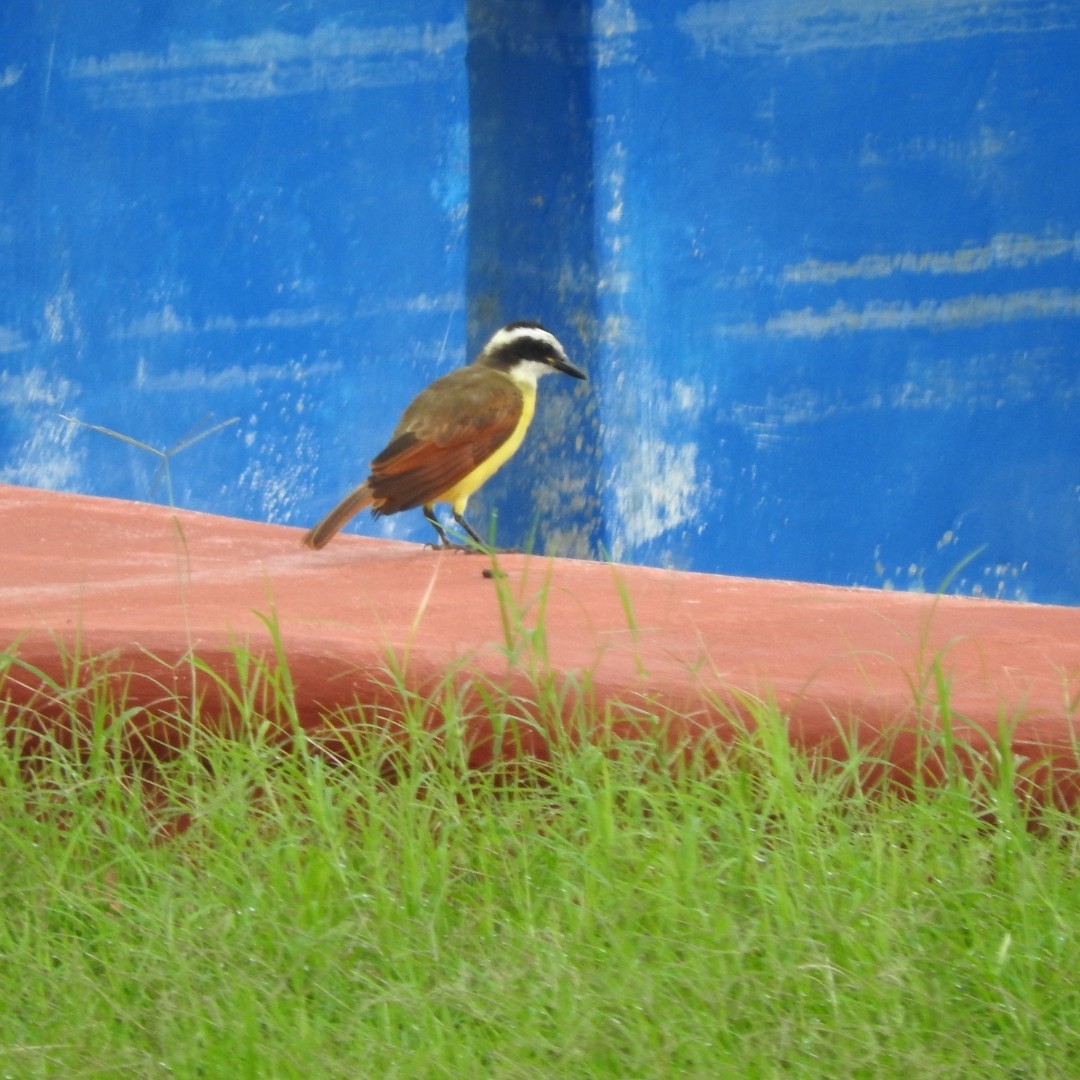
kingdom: Animalia
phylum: Chordata
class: Aves
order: Passeriformes
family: Tyrannidae
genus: Pitangus
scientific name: Pitangus sulphuratus
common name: Great kiskadee
